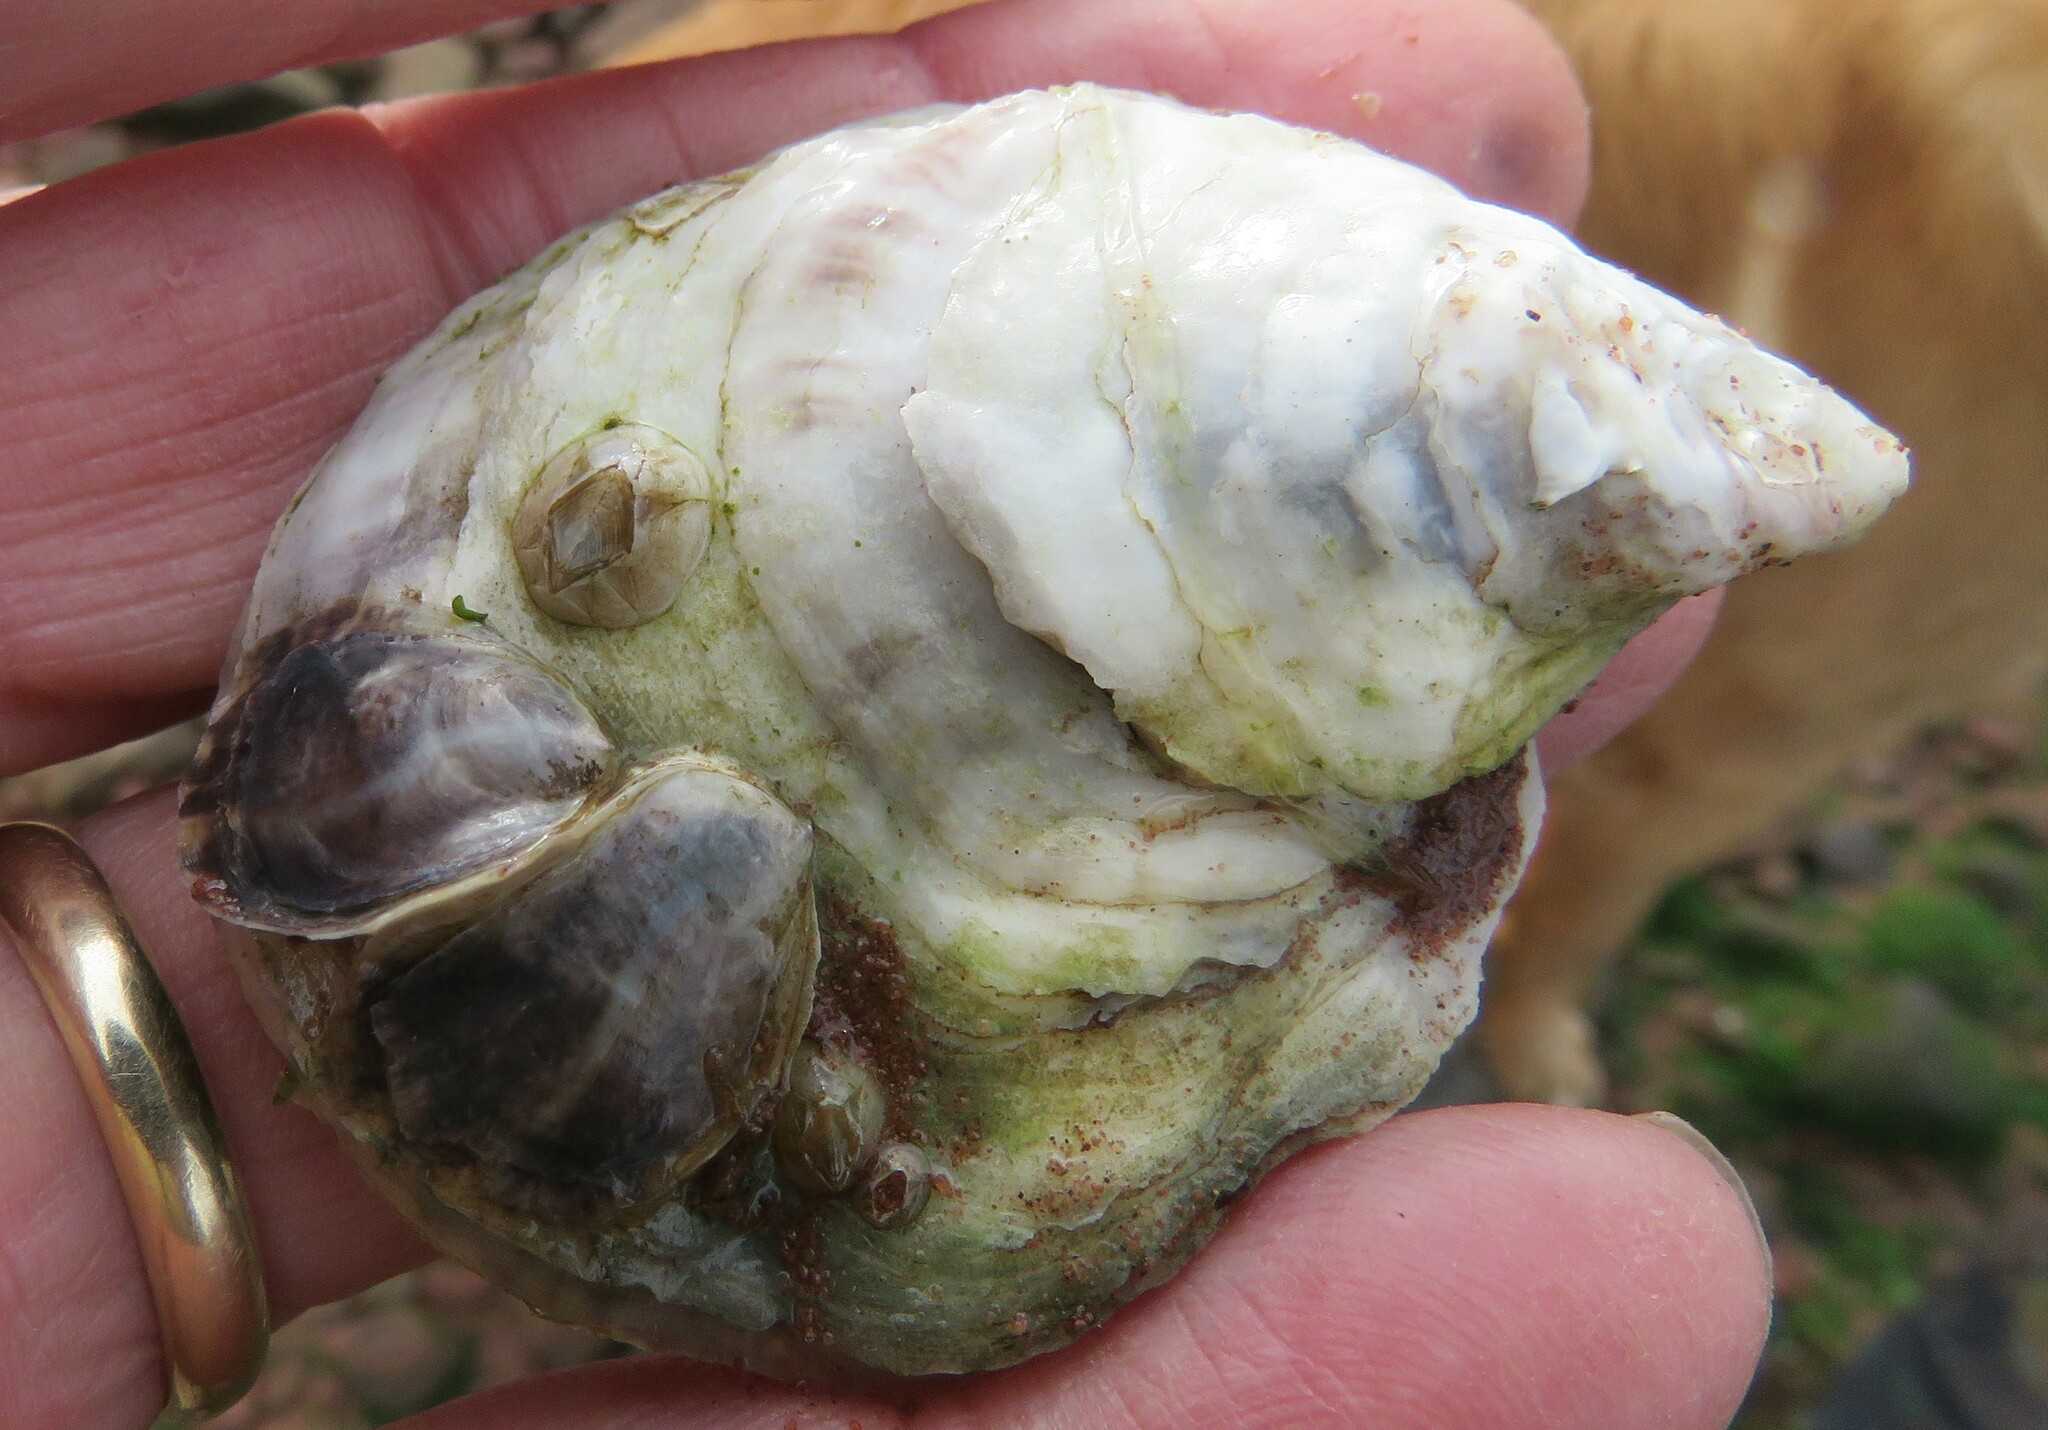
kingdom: Animalia
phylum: Mollusca
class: Bivalvia
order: Ostreida
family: Ostreidae
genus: Crassostrea
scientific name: Crassostrea virginica
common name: American oyster
